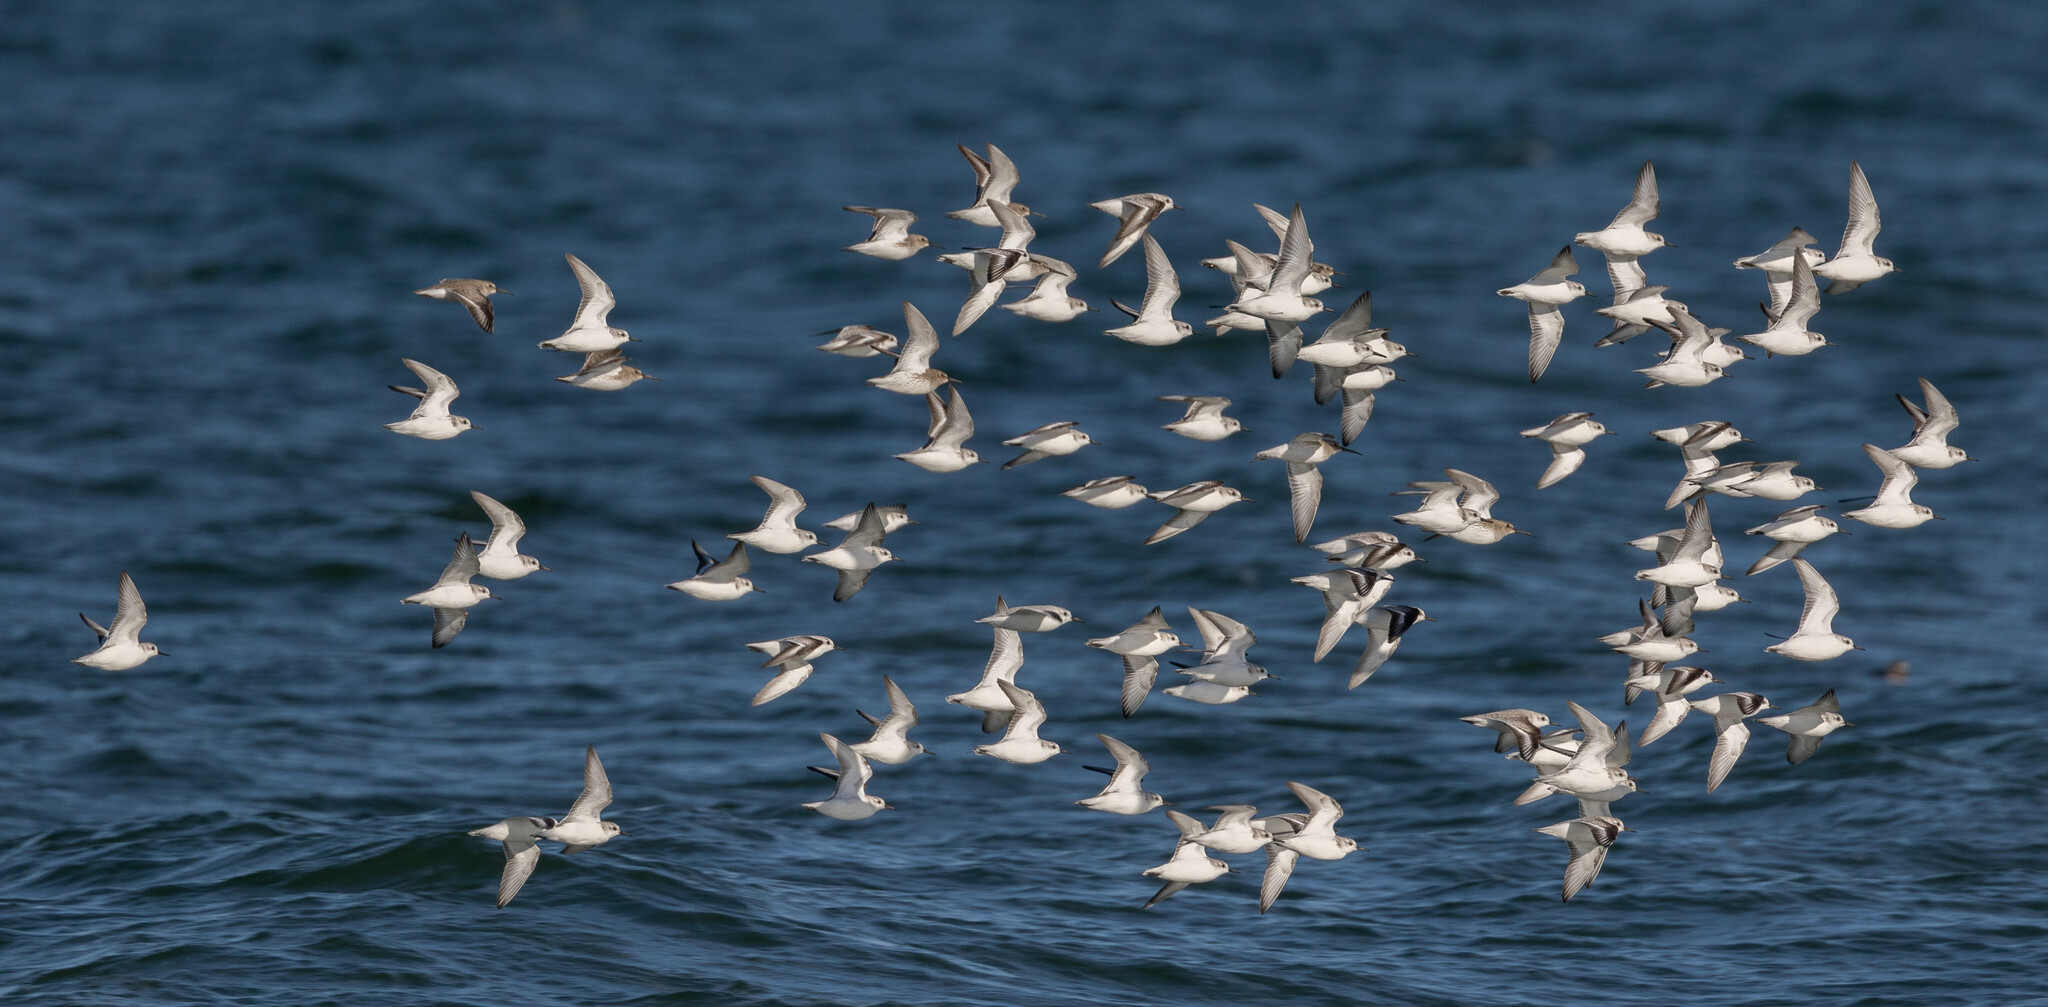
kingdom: Animalia
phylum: Chordata
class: Aves
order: Charadriiformes
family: Scolopacidae
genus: Calidris
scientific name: Calidris alba
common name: Sanderling
